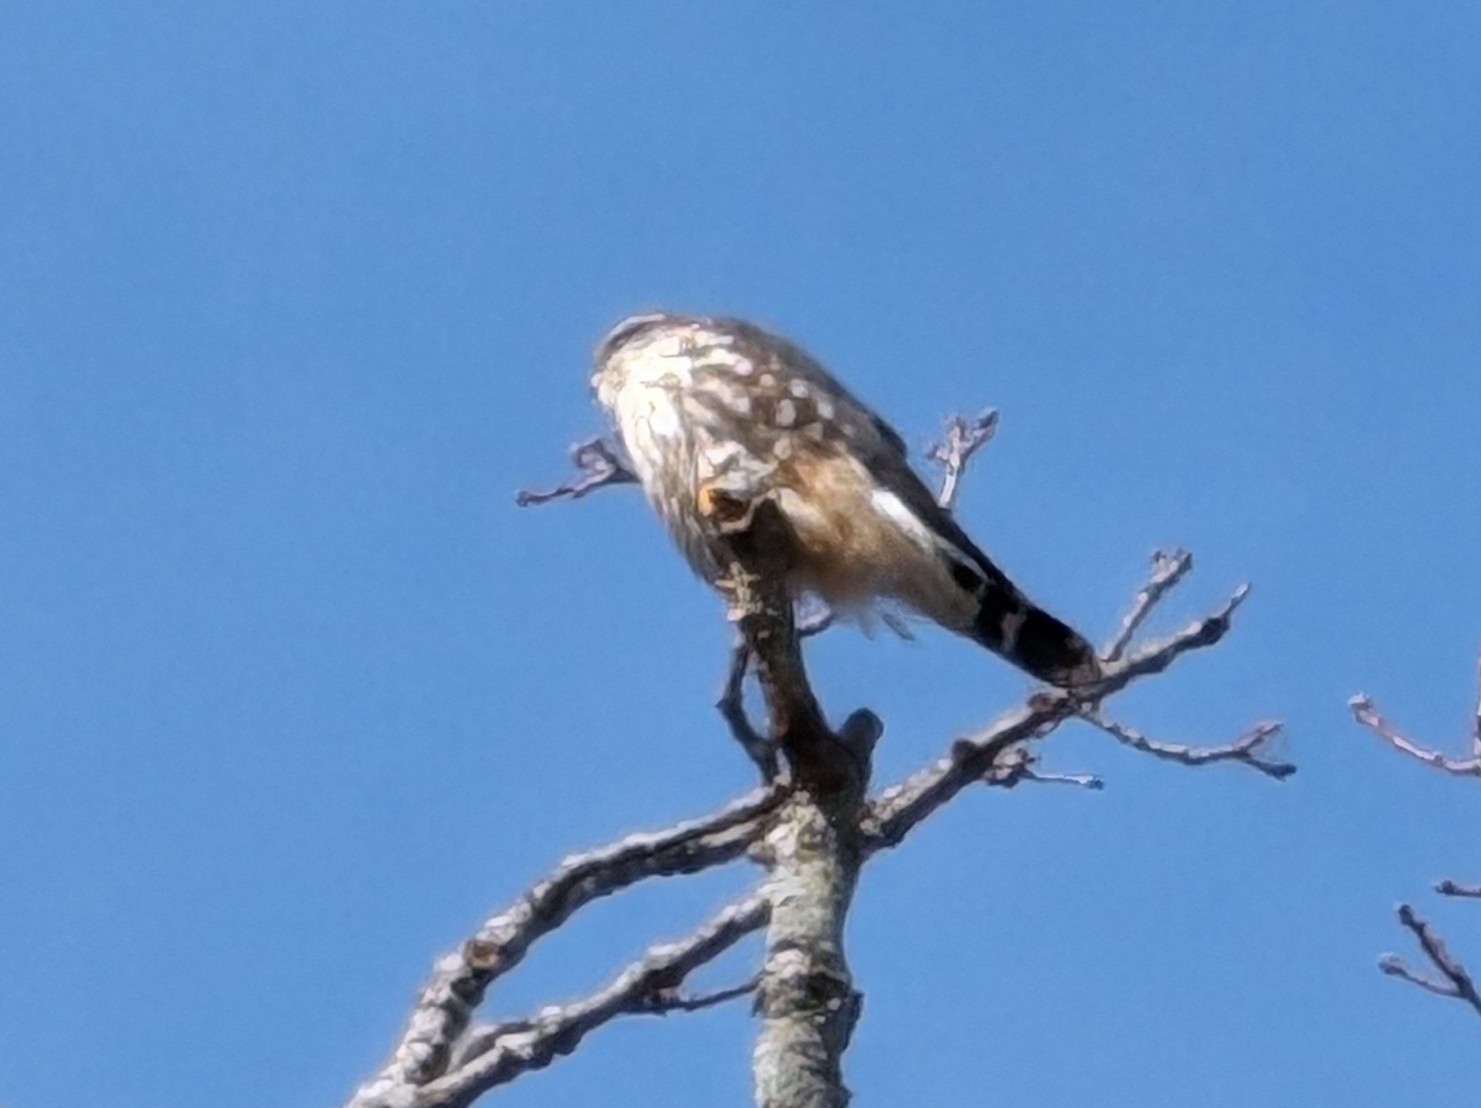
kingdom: Animalia
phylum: Chordata
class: Aves
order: Falconiformes
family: Falconidae
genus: Falco
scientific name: Falco columbarius
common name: Merlin
